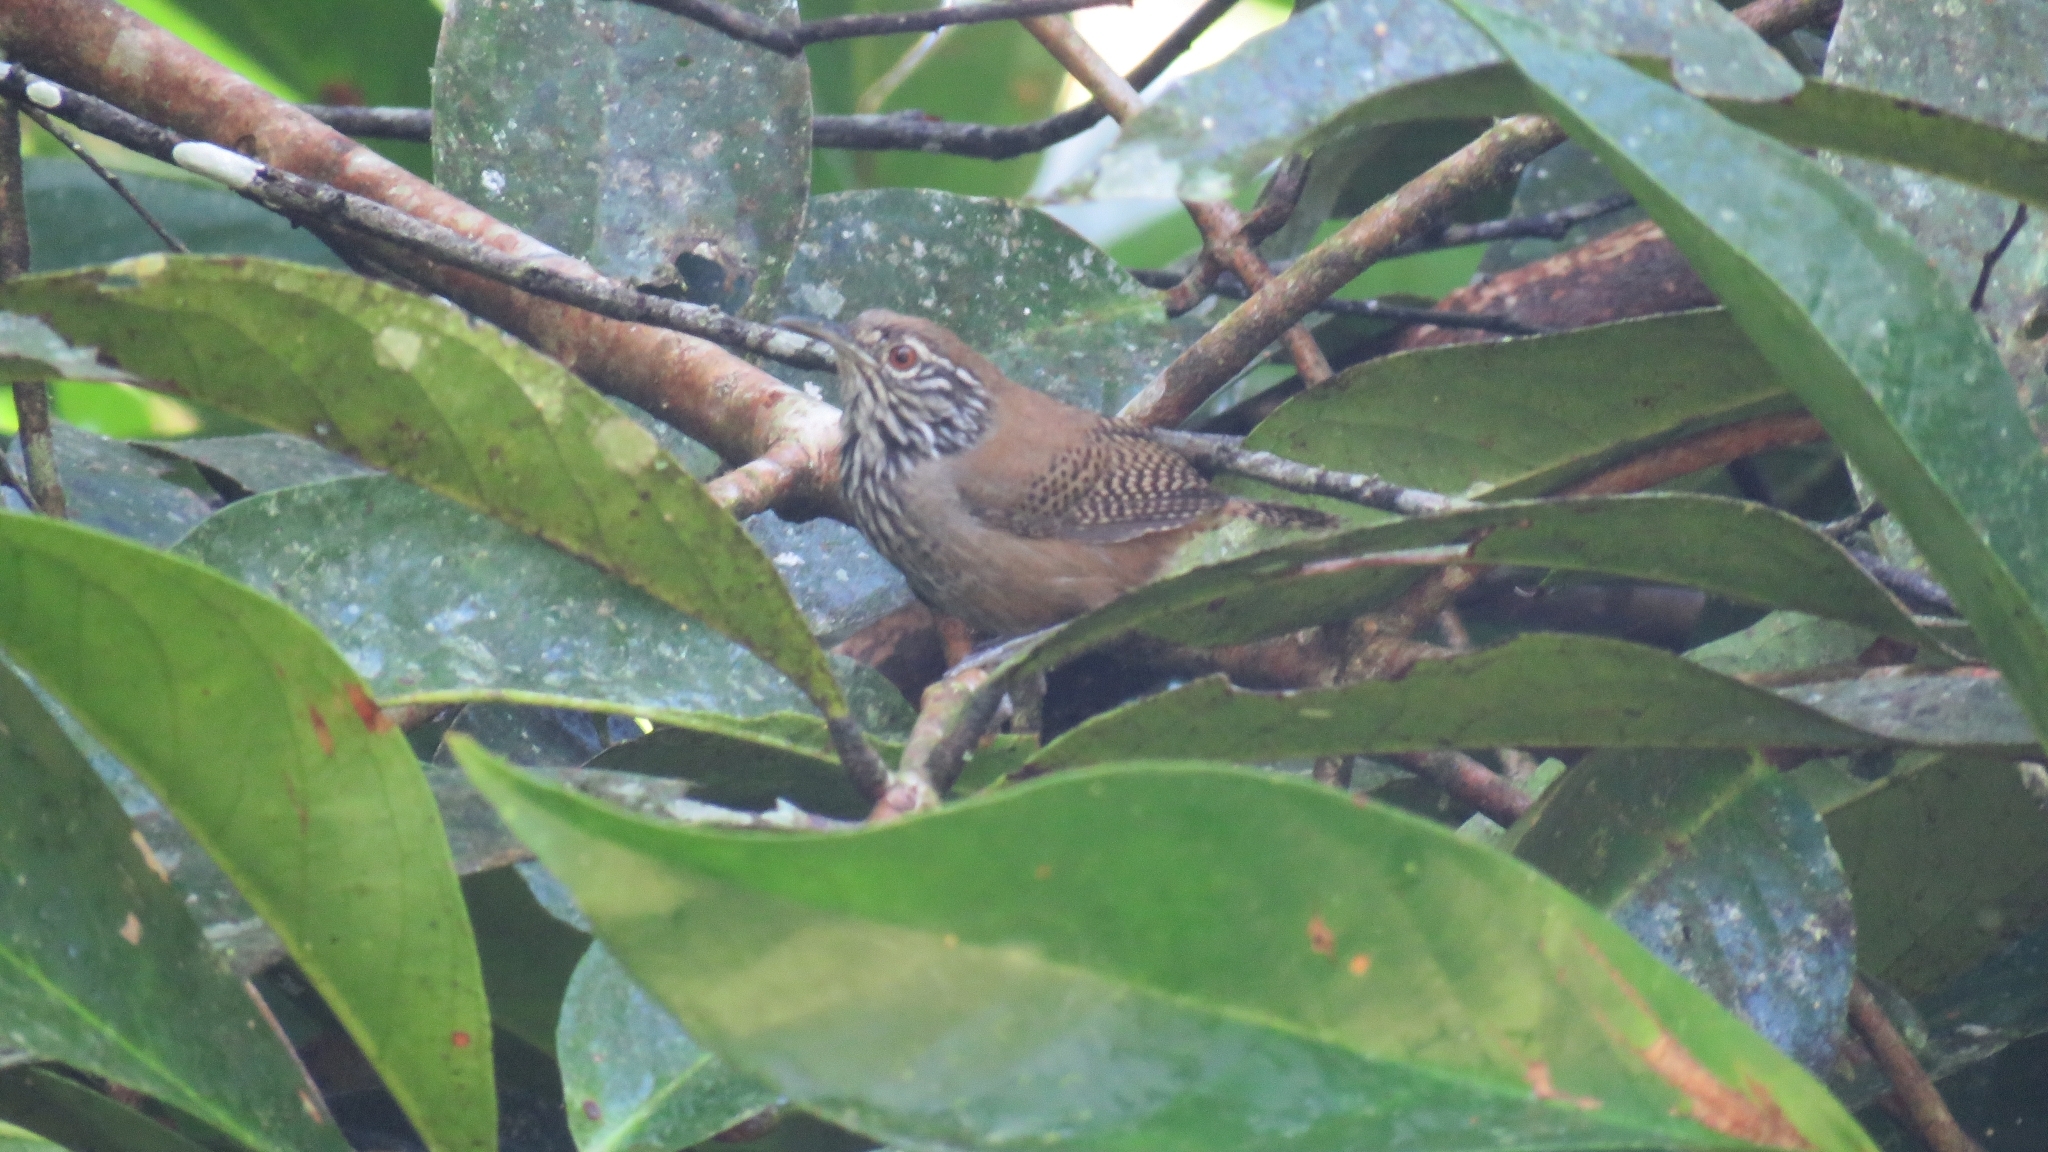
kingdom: Animalia
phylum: Chordata
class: Aves
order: Passeriformes
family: Troglodytidae
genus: Cantorchilus
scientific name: Cantorchilus thoracicus
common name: Stripe-breasted wren
